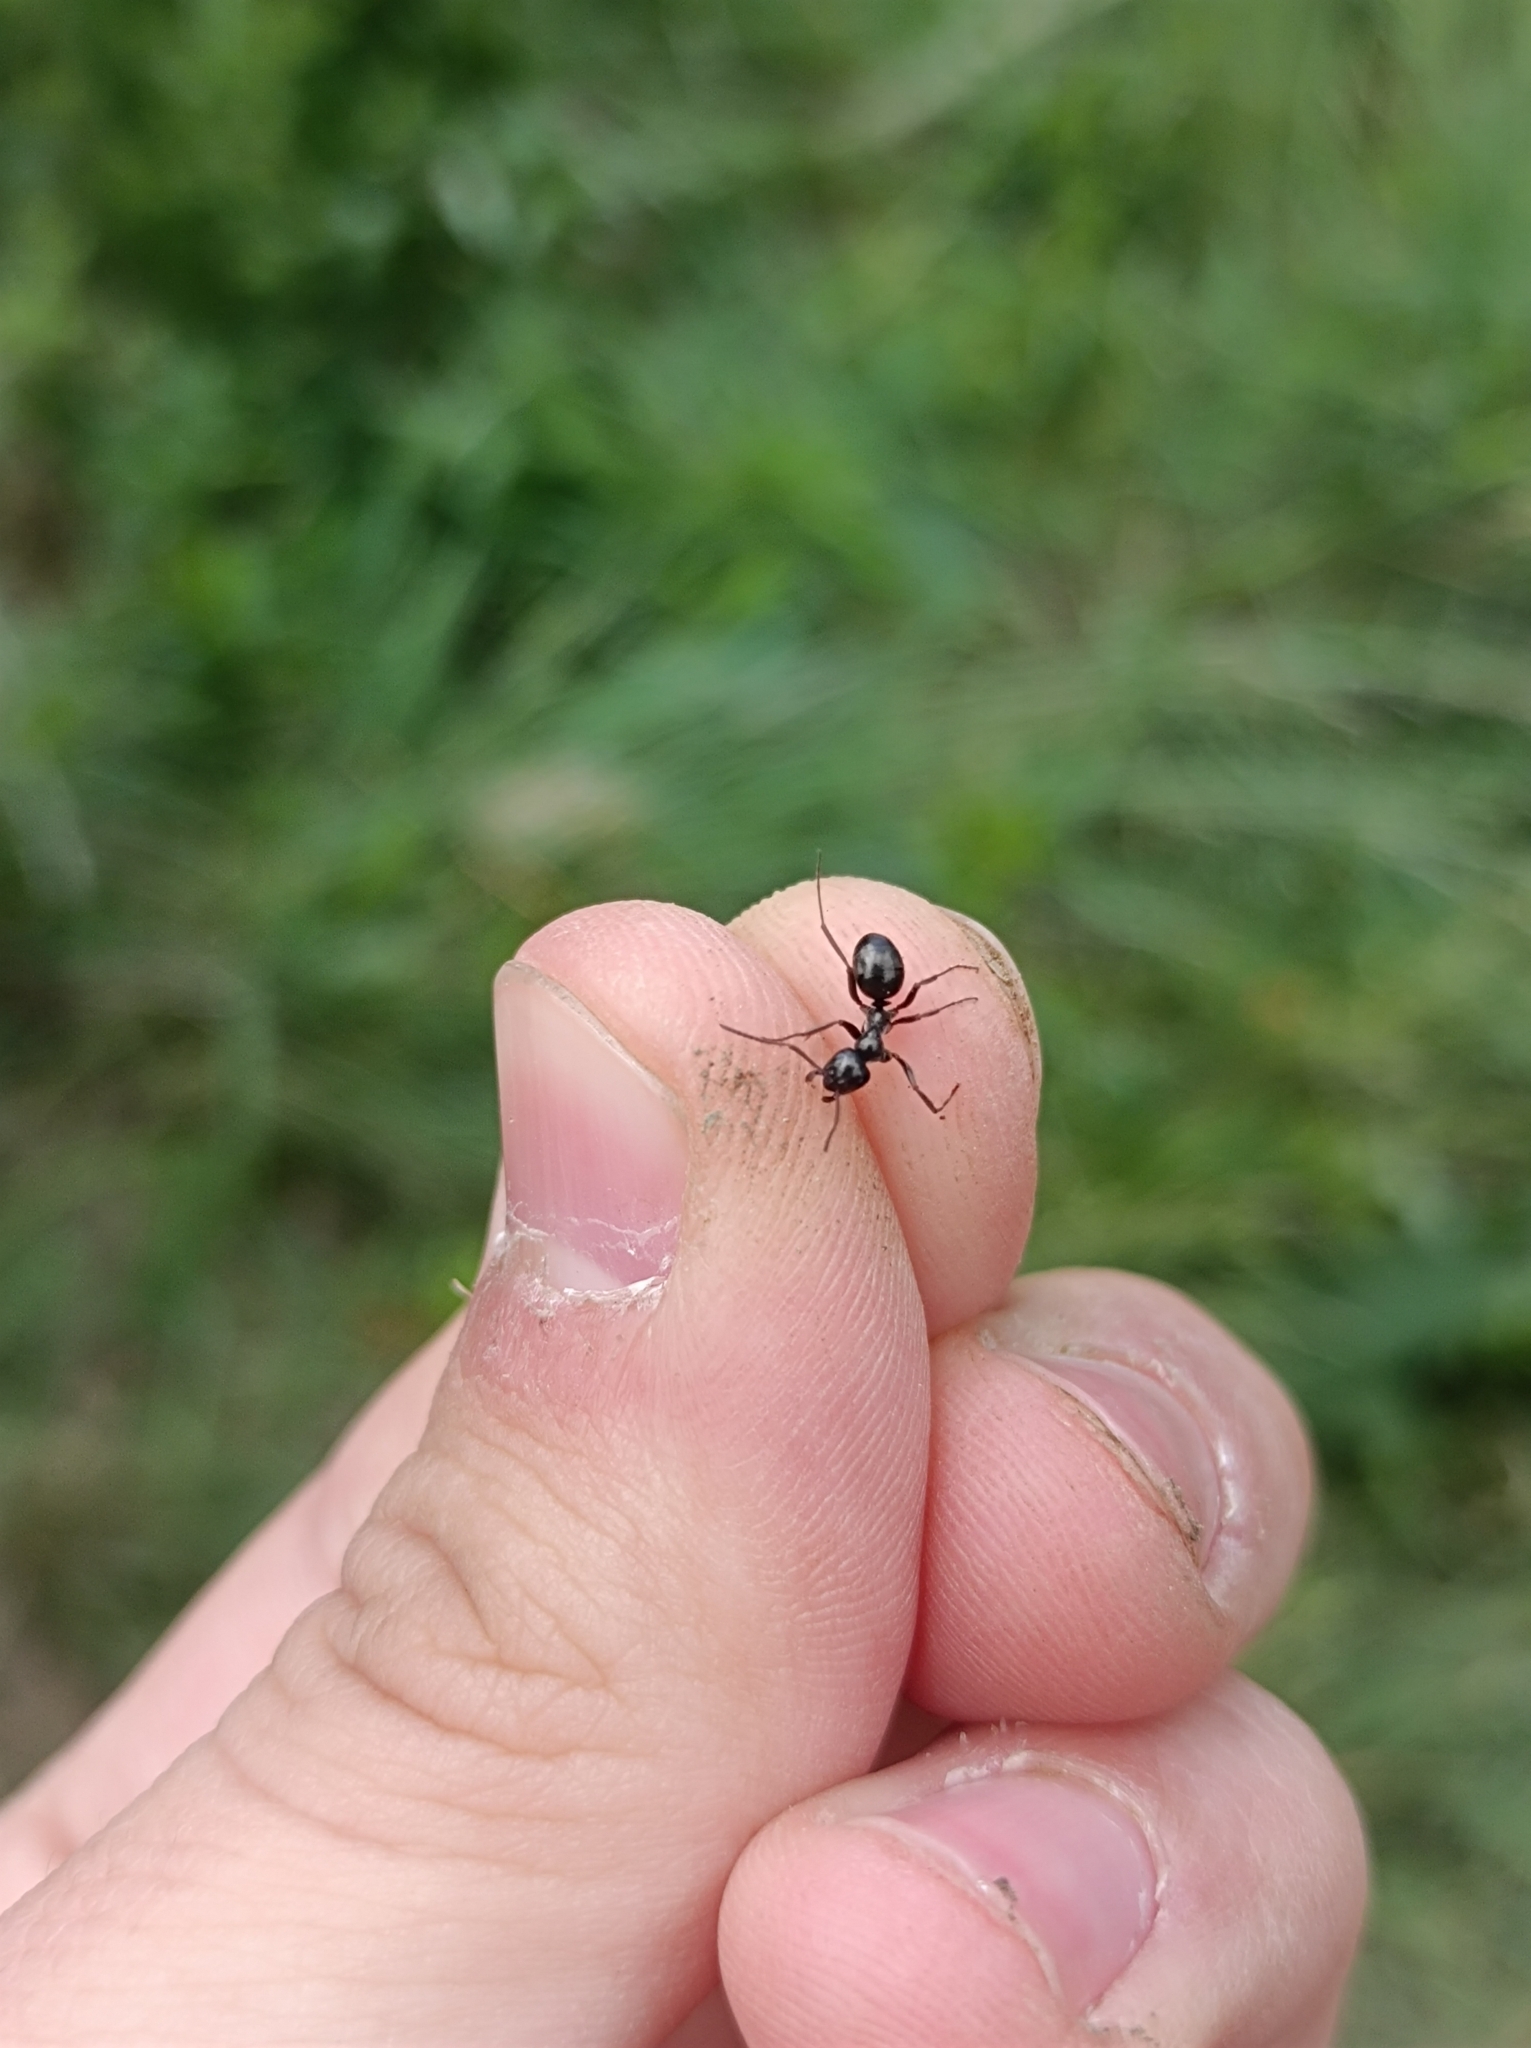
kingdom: Animalia
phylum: Arthropoda
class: Insecta
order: Hymenoptera
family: Formicidae
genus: Formica
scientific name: Formica gagates
